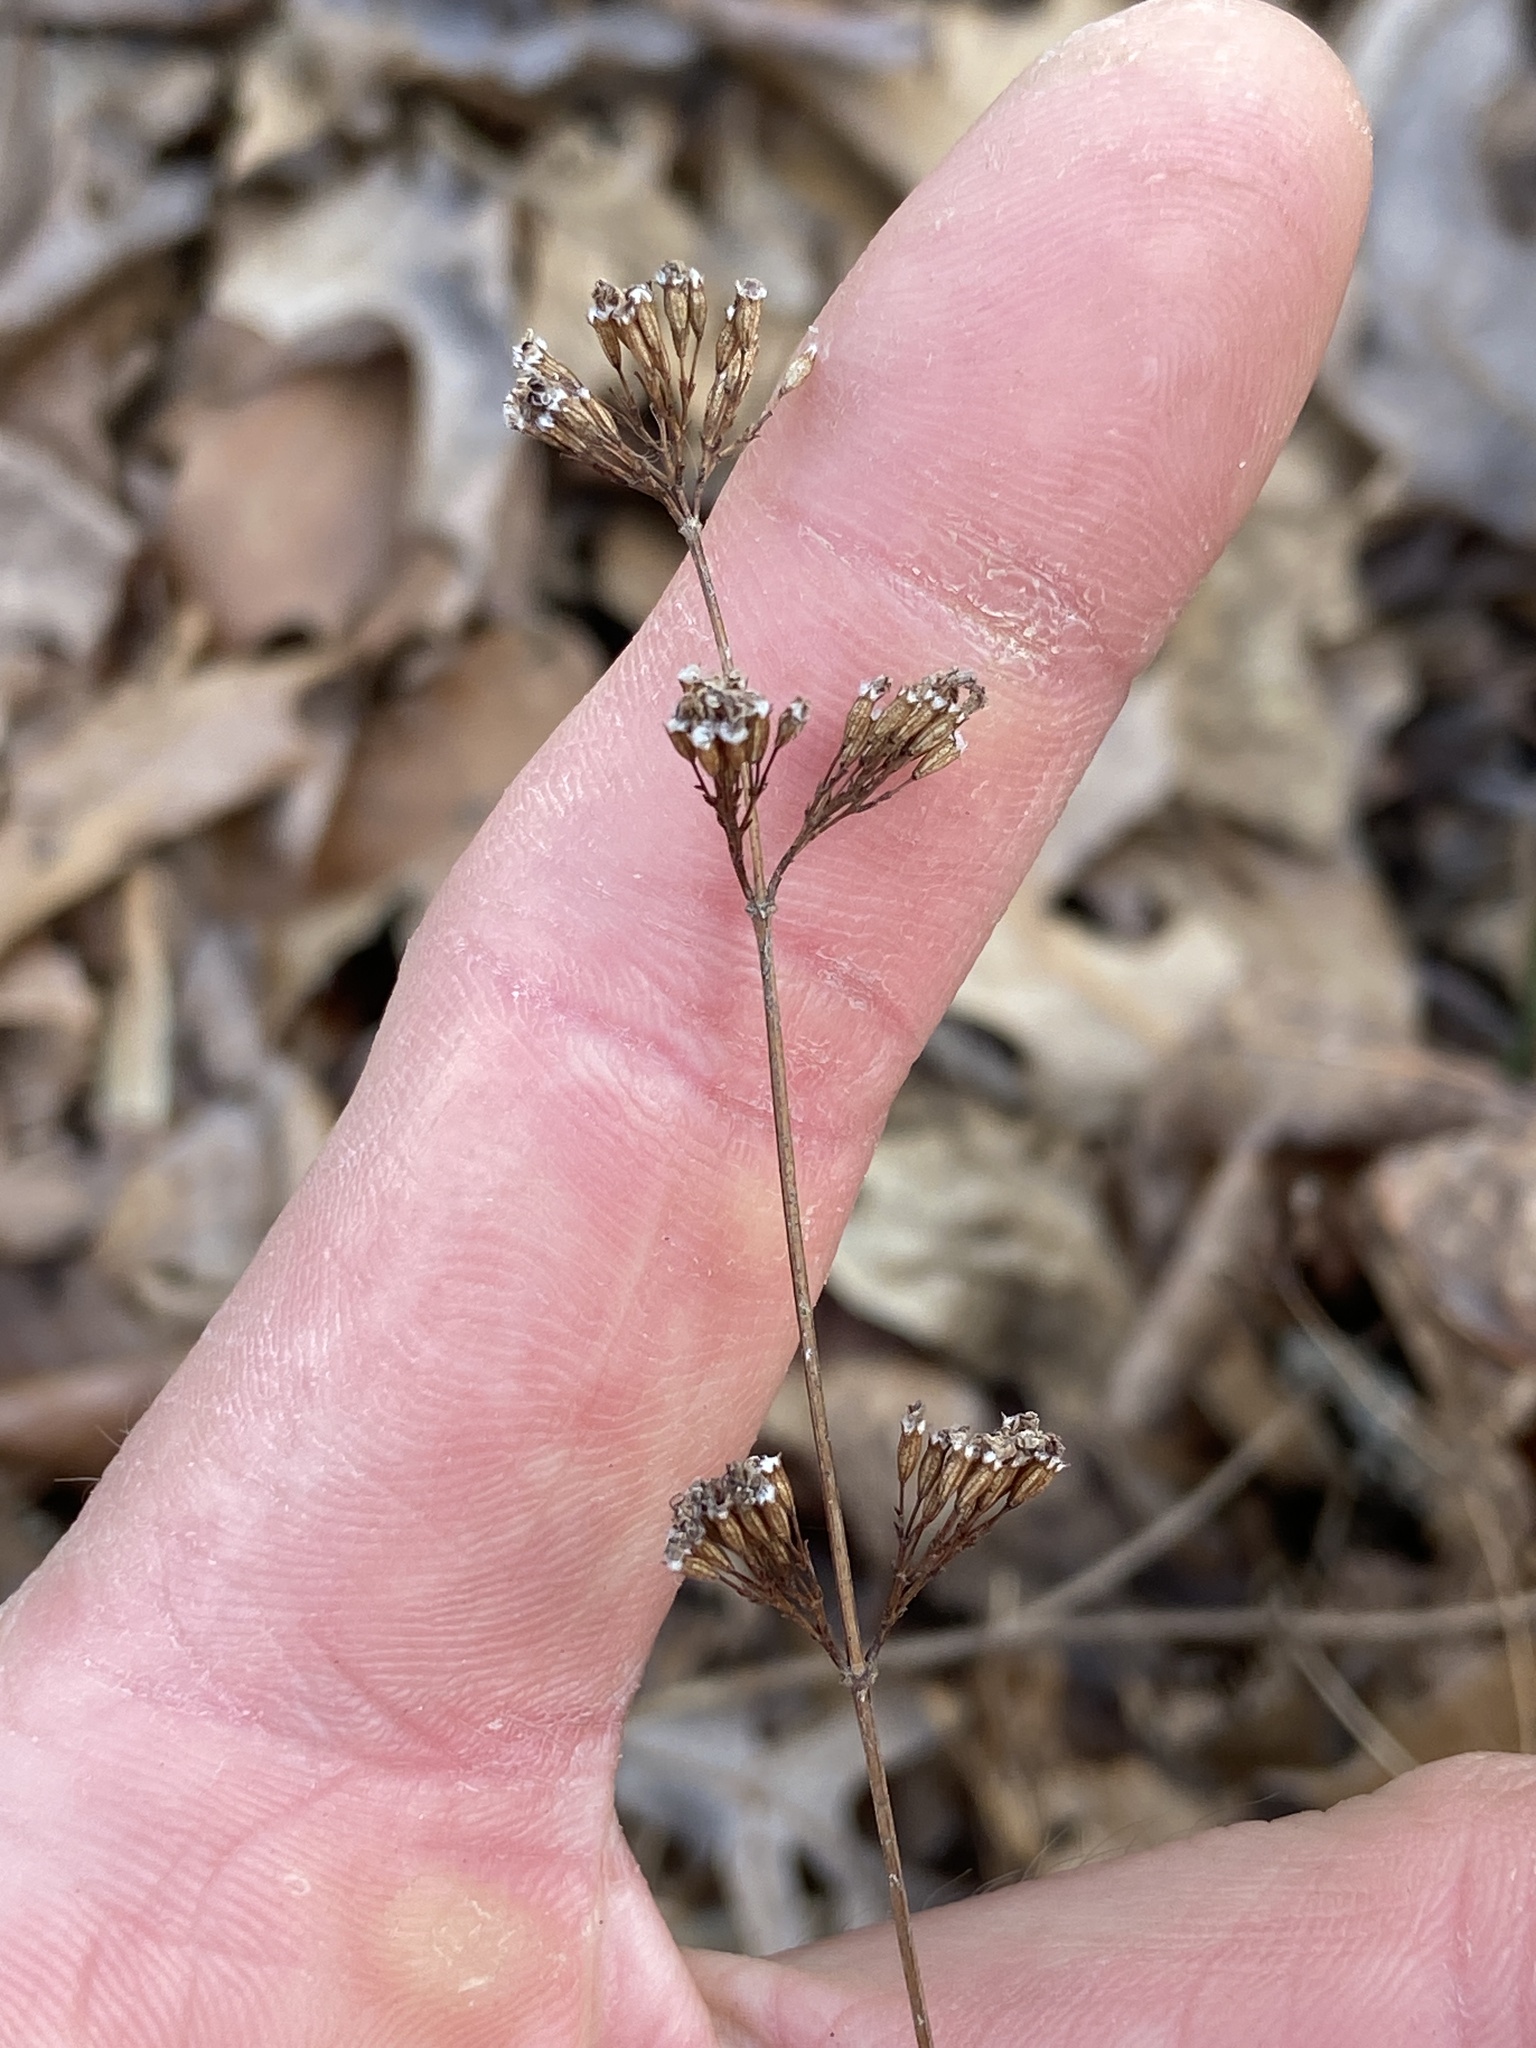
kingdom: Plantae
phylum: Tracheophyta
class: Magnoliopsida
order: Lamiales
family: Lamiaceae
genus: Cunila
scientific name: Cunila origanoides
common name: American dittany
